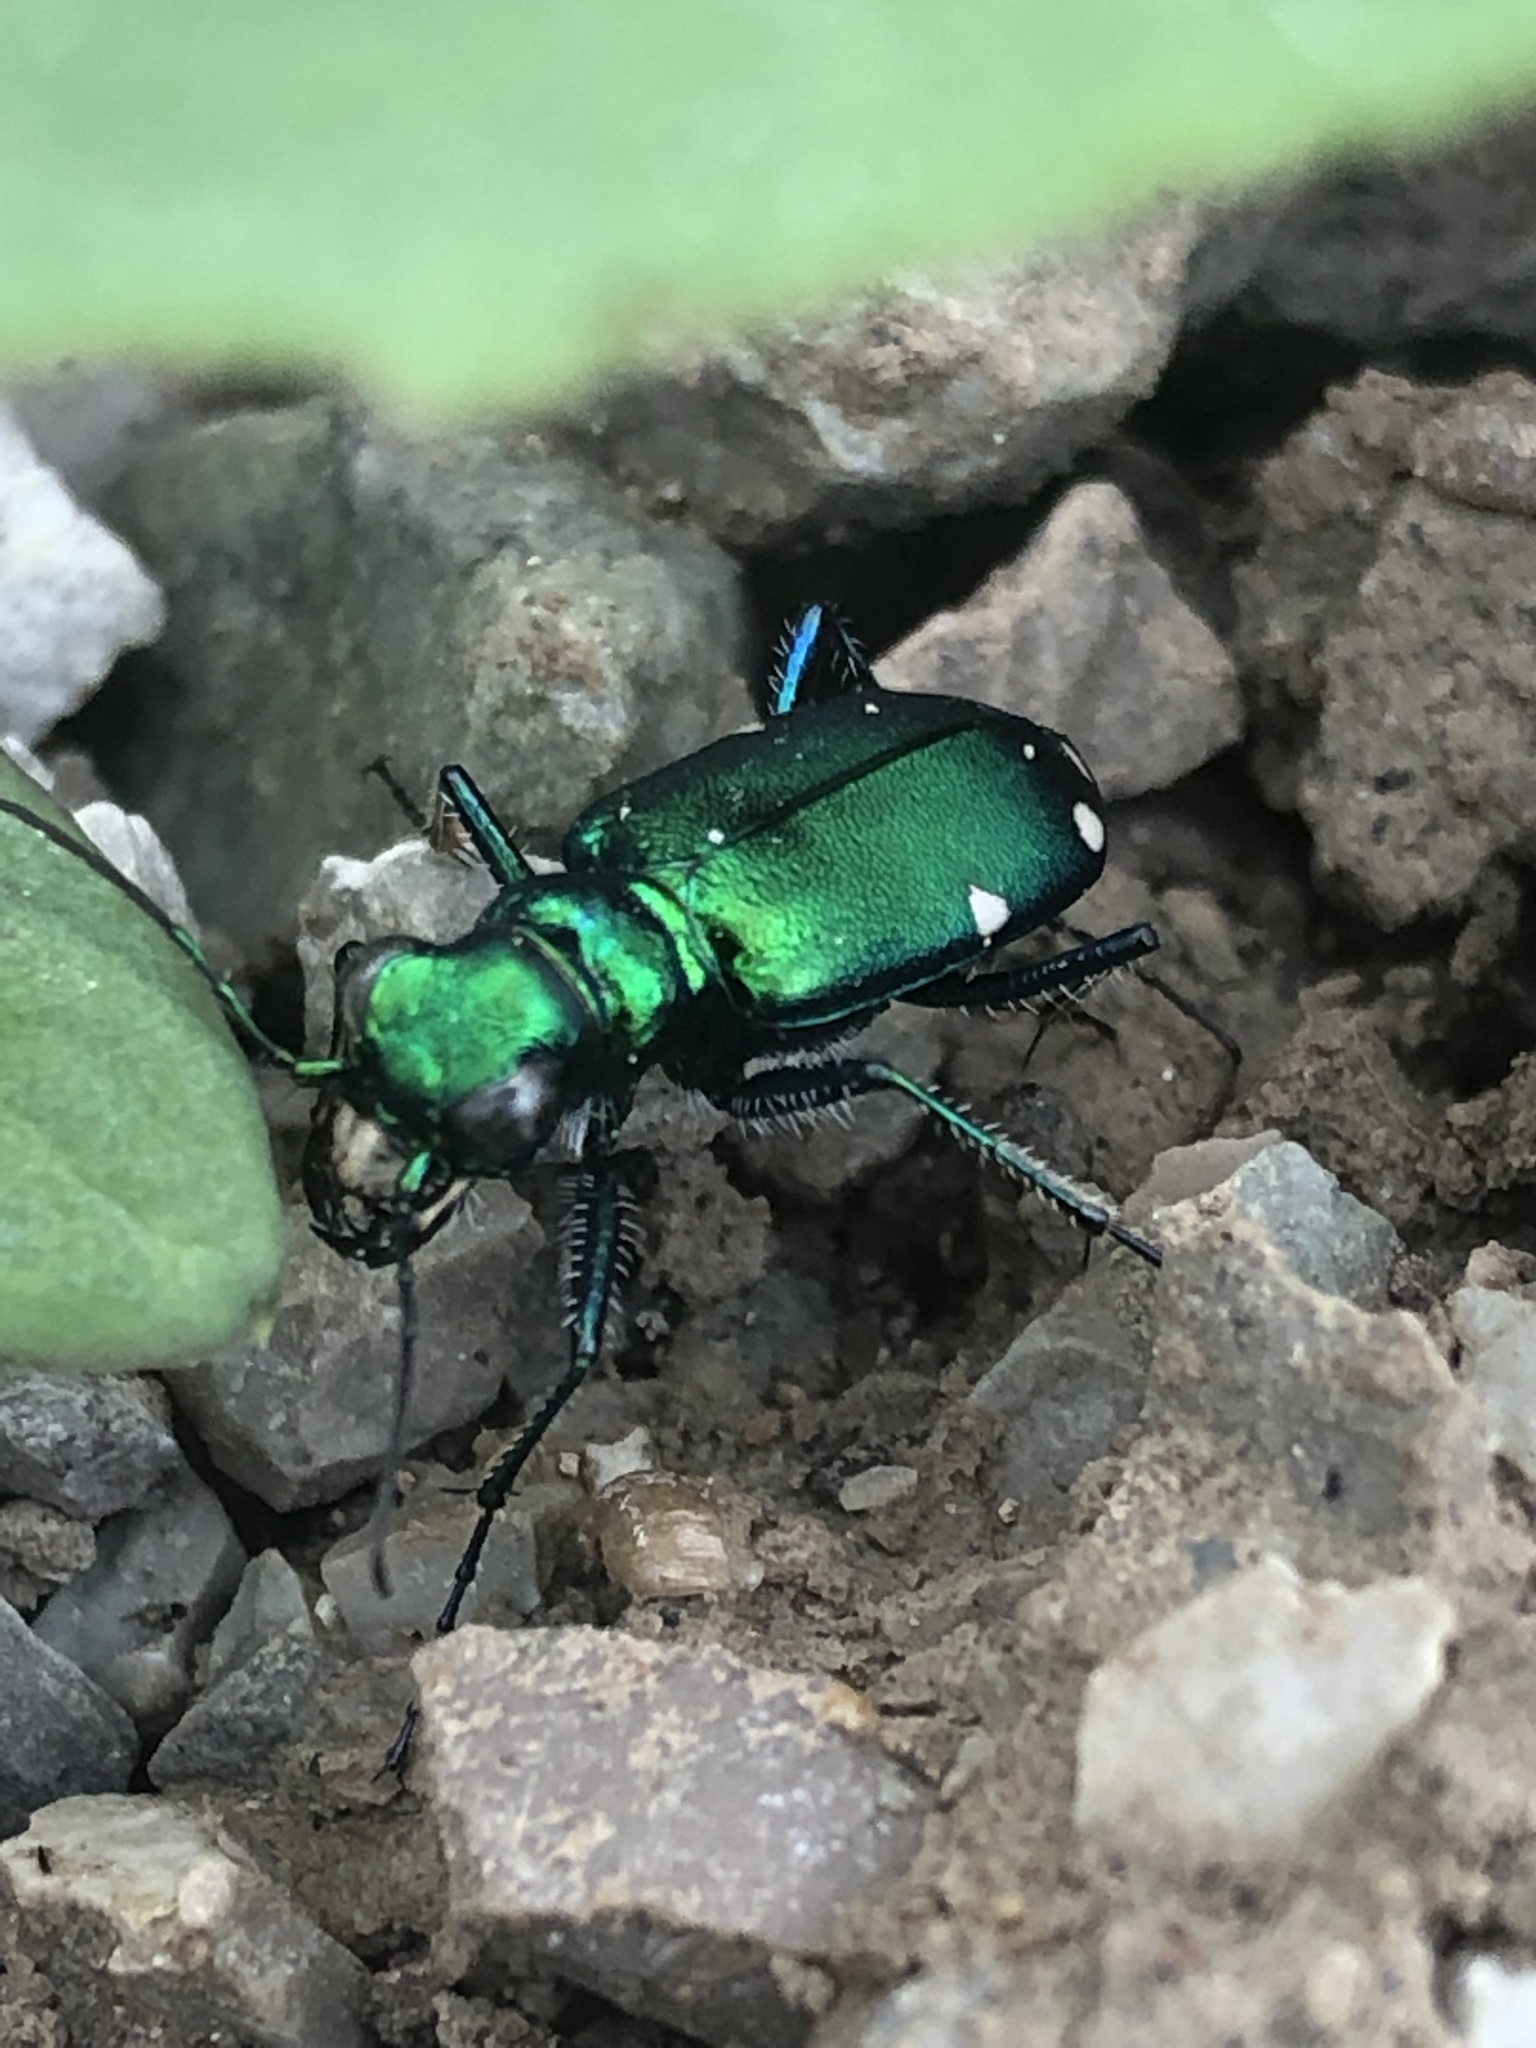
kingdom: Animalia
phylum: Arthropoda
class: Insecta
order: Coleoptera
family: Carabidae
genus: Cicindela
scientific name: Cicindela sexguttata
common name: Six-spotted tiger beetle
